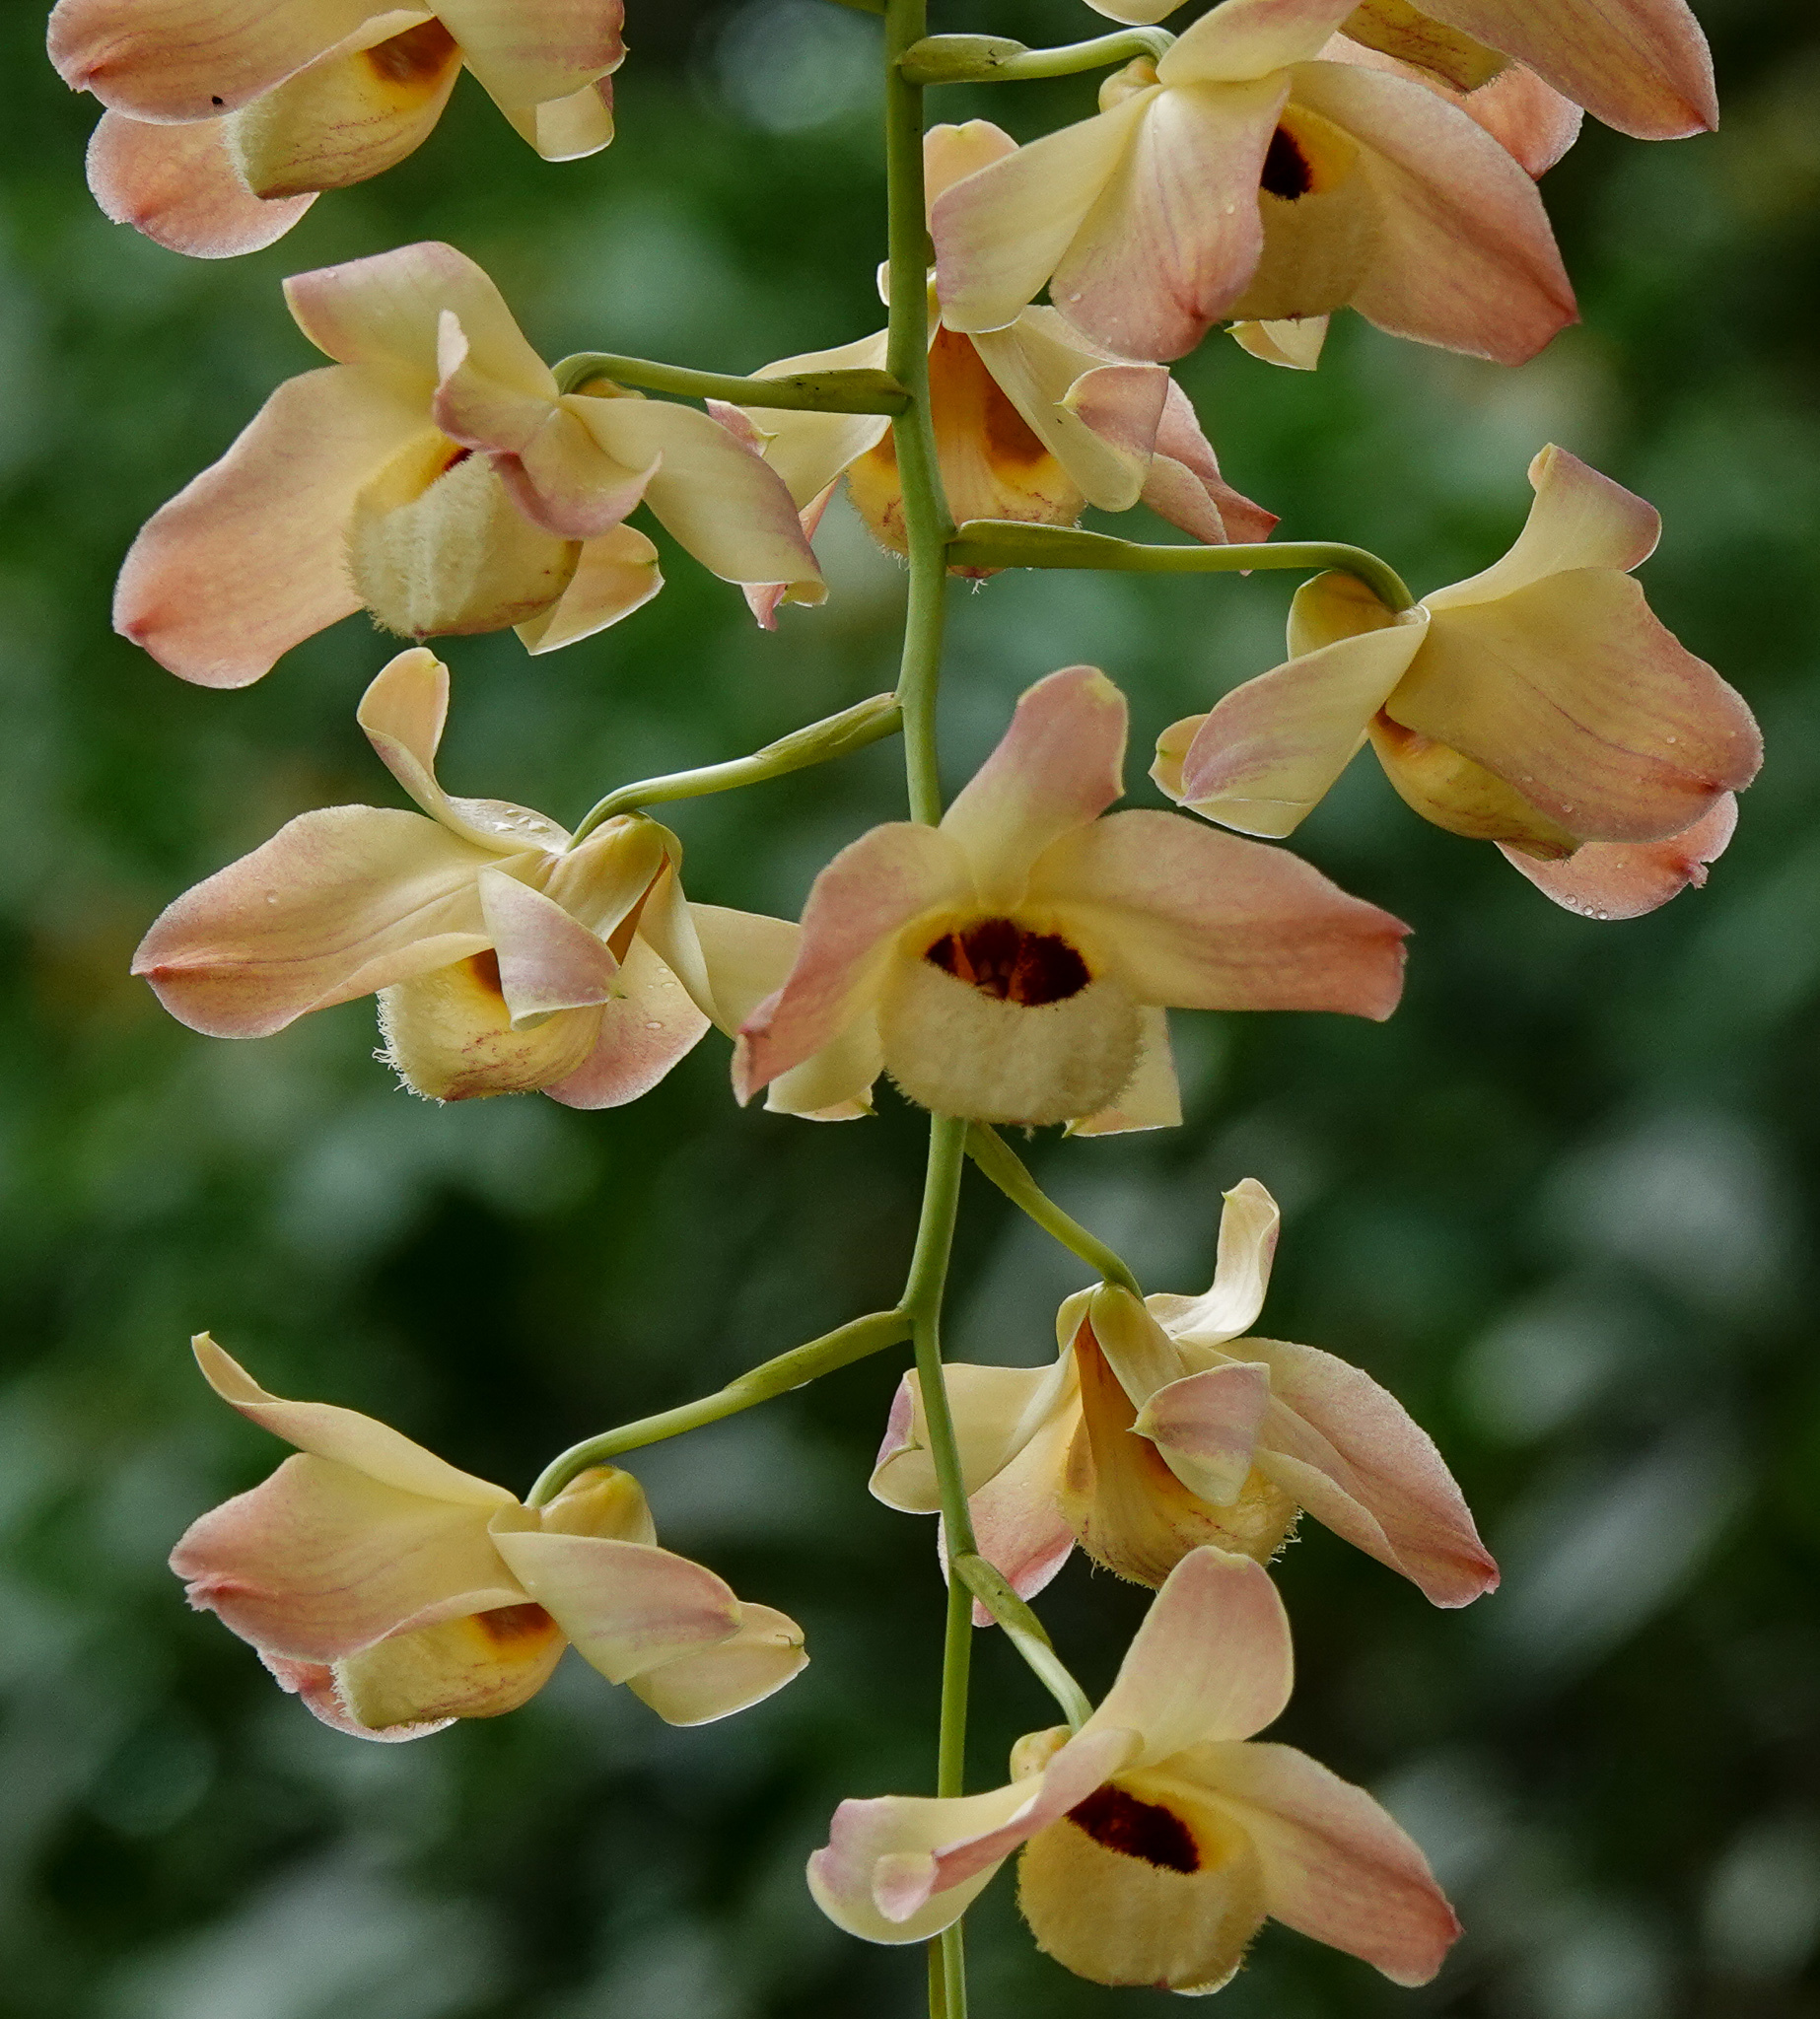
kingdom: Plantae
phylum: Tracheophyta
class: Liliopsida
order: Asparagales
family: Orchidaceae
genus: Dendrobium
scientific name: Dendrobium moschatum
